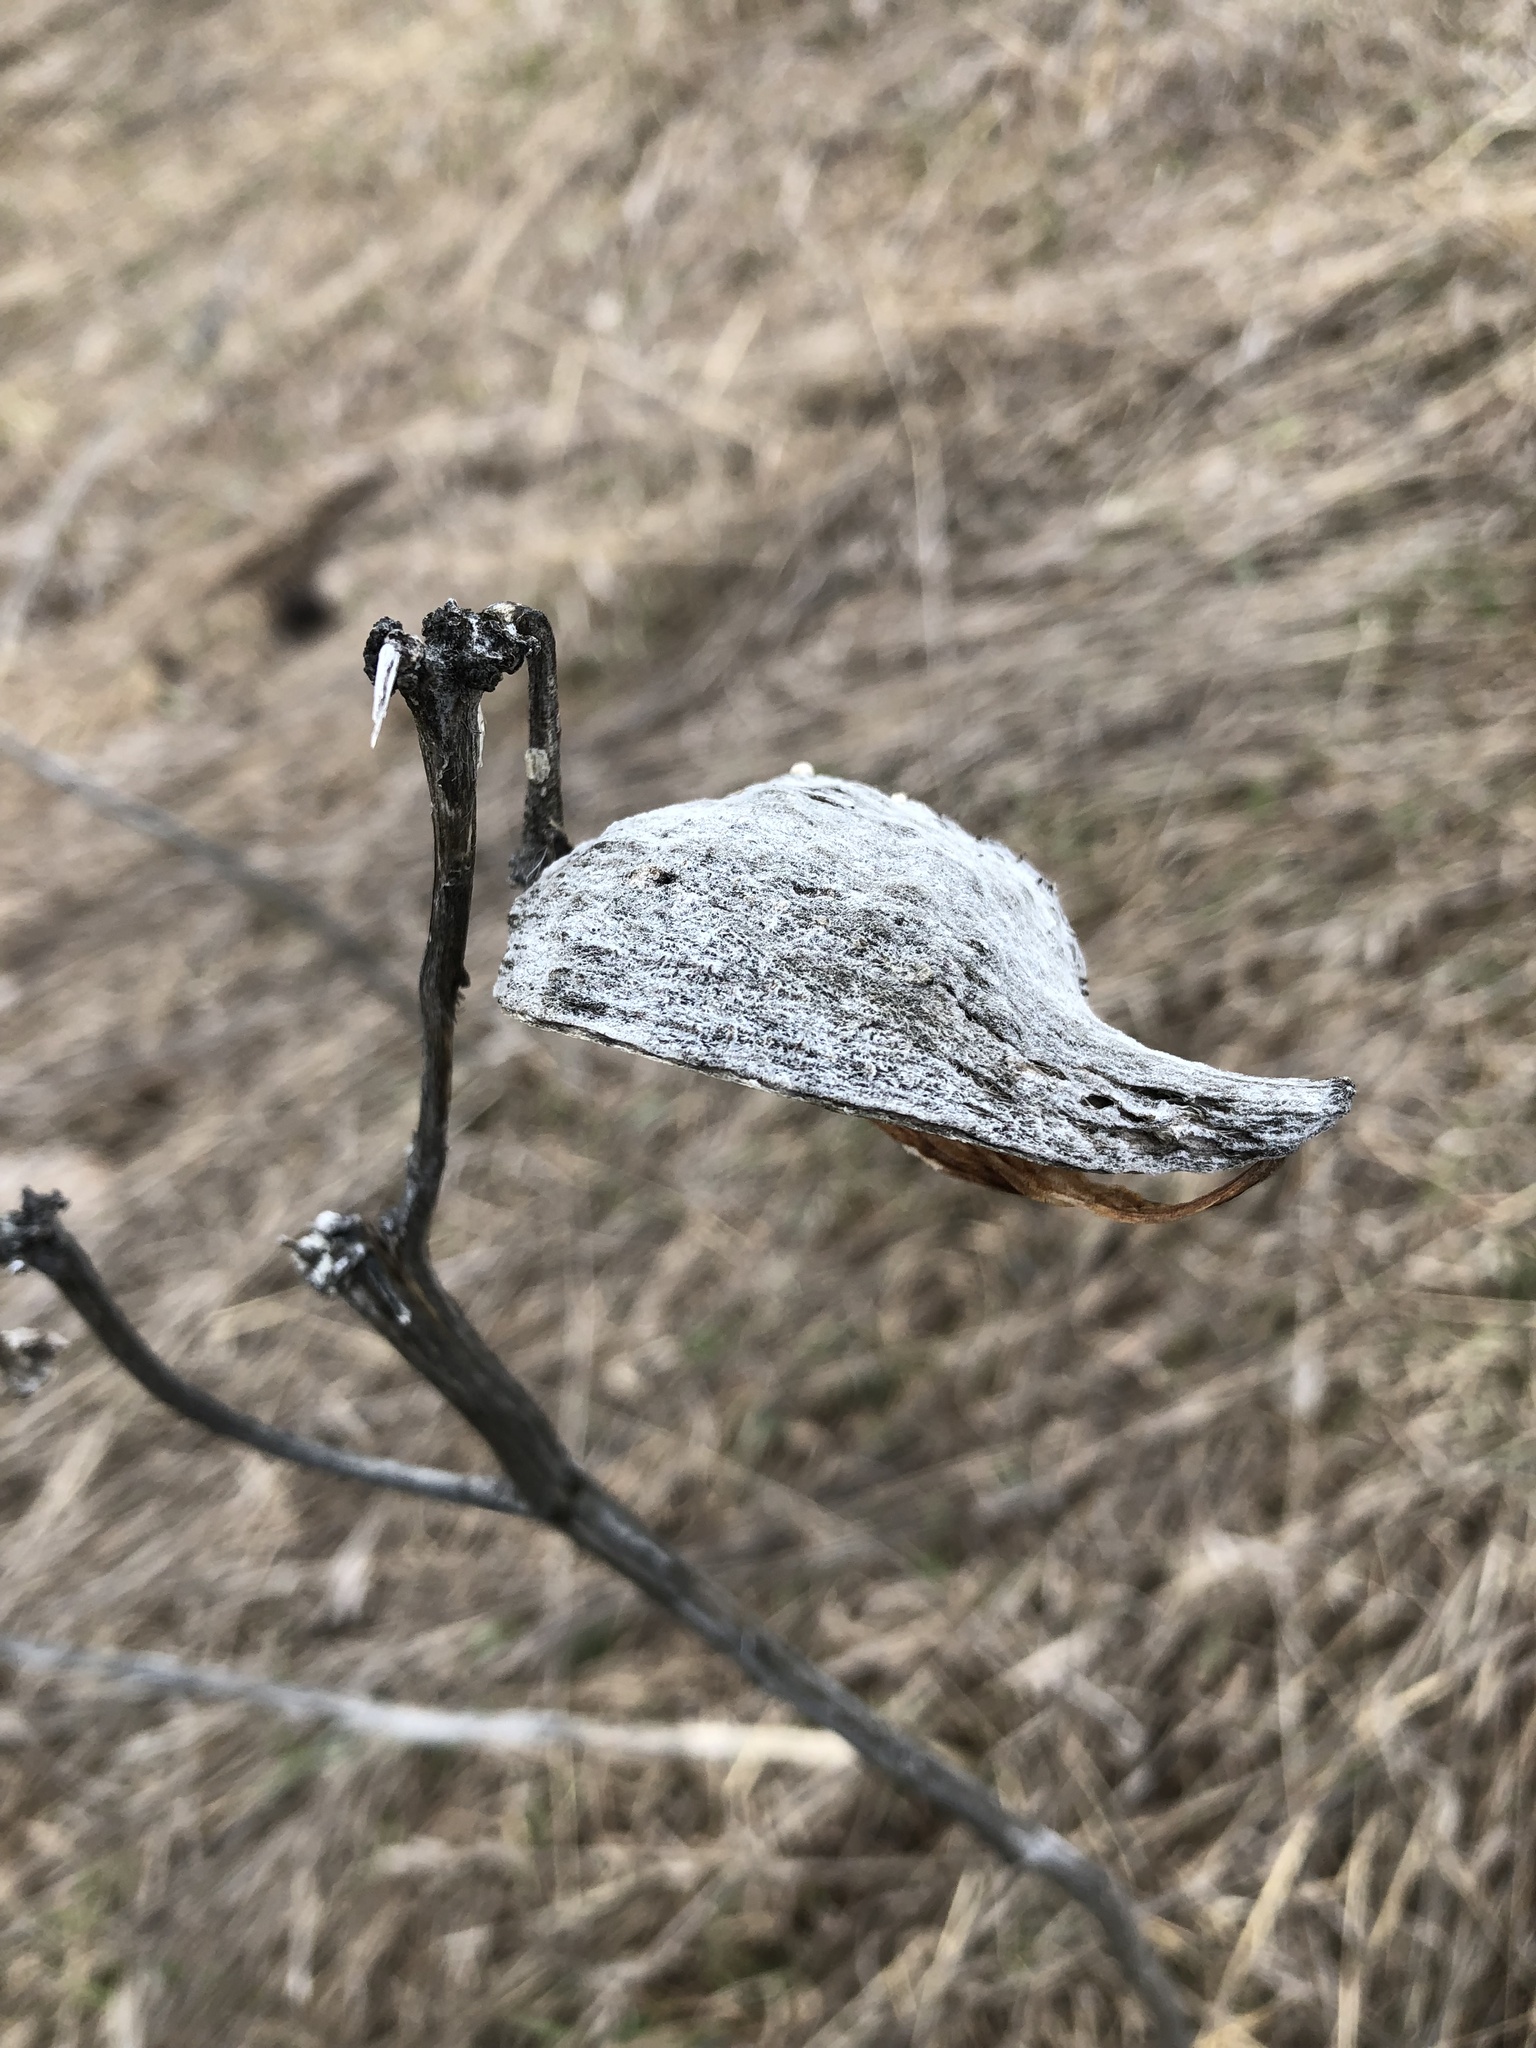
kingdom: Plantae
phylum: Tracheophyta
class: Magnoliopsida
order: Gentianales
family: Apocynaceae
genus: Asclepias
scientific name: Asclepias syriaca
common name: Common milkweed
